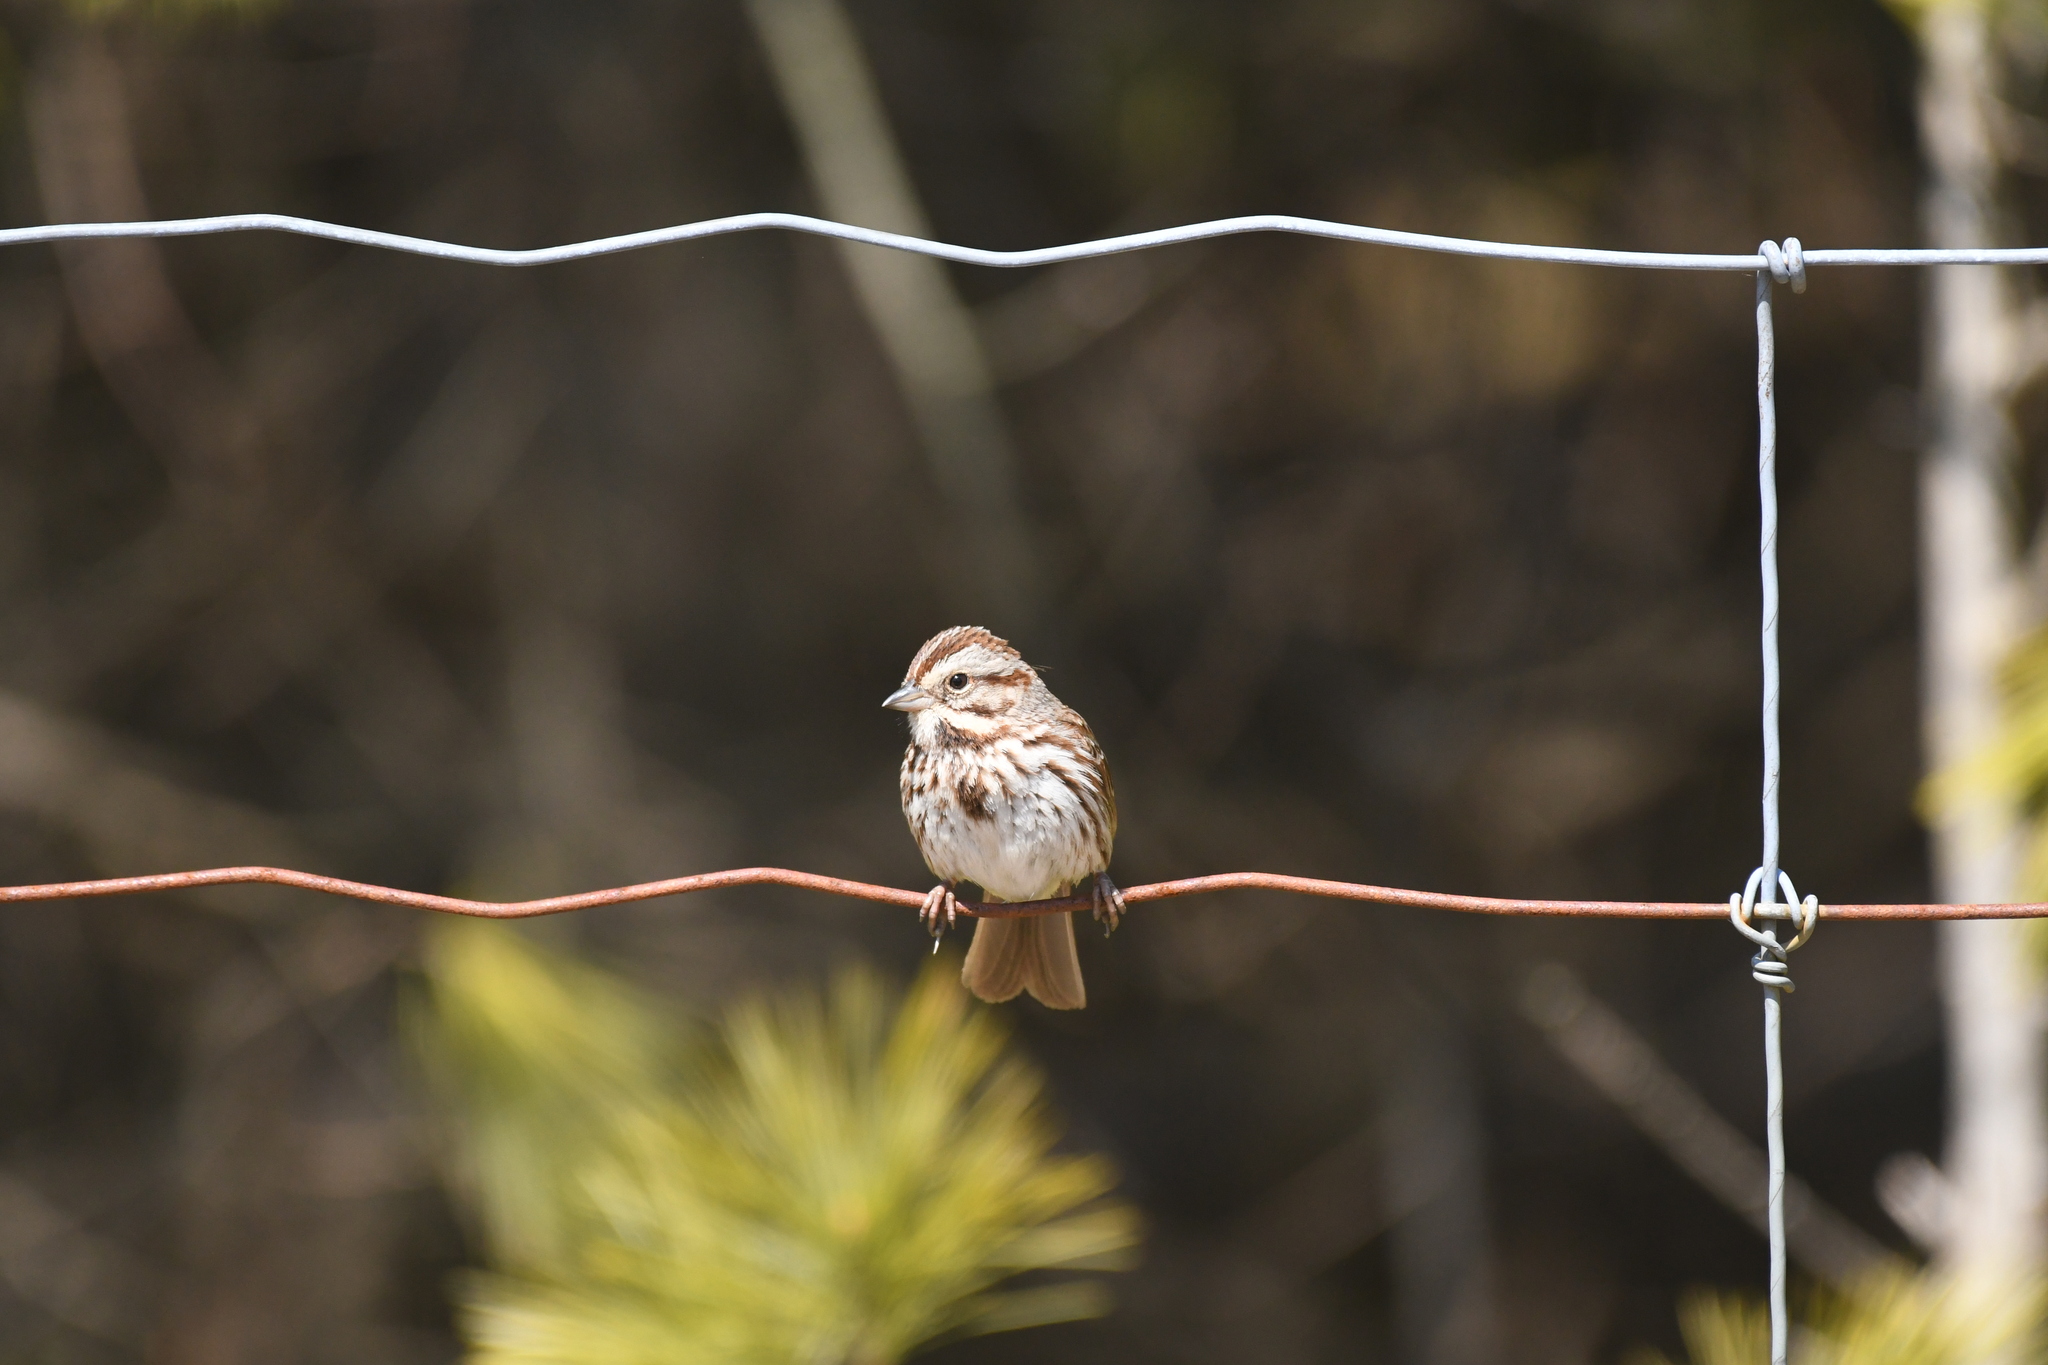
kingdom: Animalia
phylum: Chordata
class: Aves
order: Passeriformes
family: Passerellidae
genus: Melospiza
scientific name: Melospiza melodia
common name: Song sparrow
